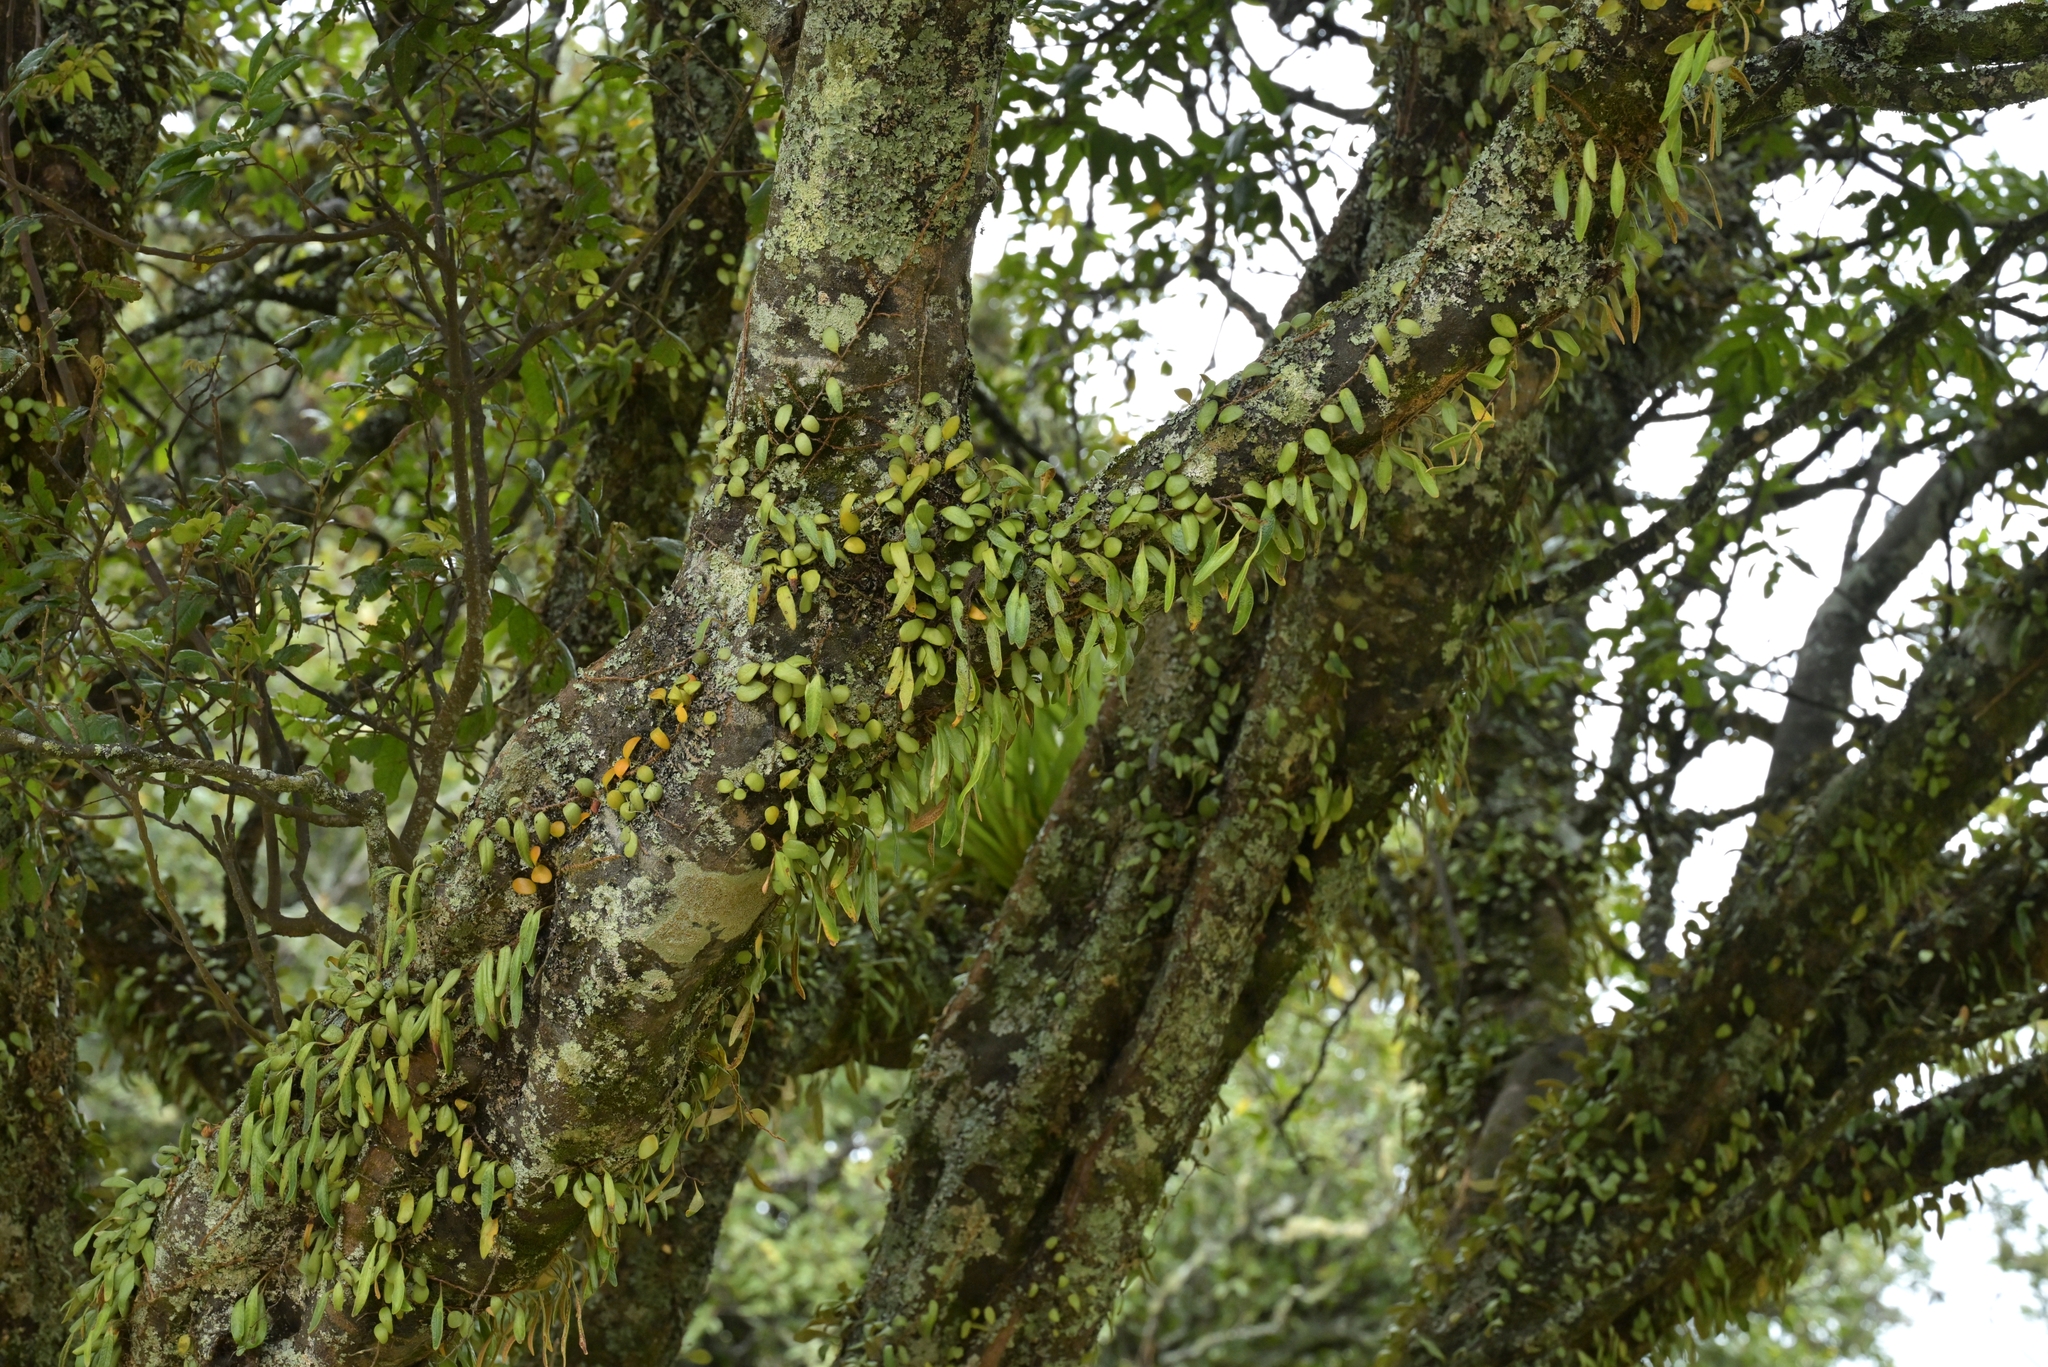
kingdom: Plantae
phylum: Tracheophyta
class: Polypodiopsida
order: Polypodiales
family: Polypodiaceae
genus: Pyrrosia
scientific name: Pyrrosia eleagnifolia
